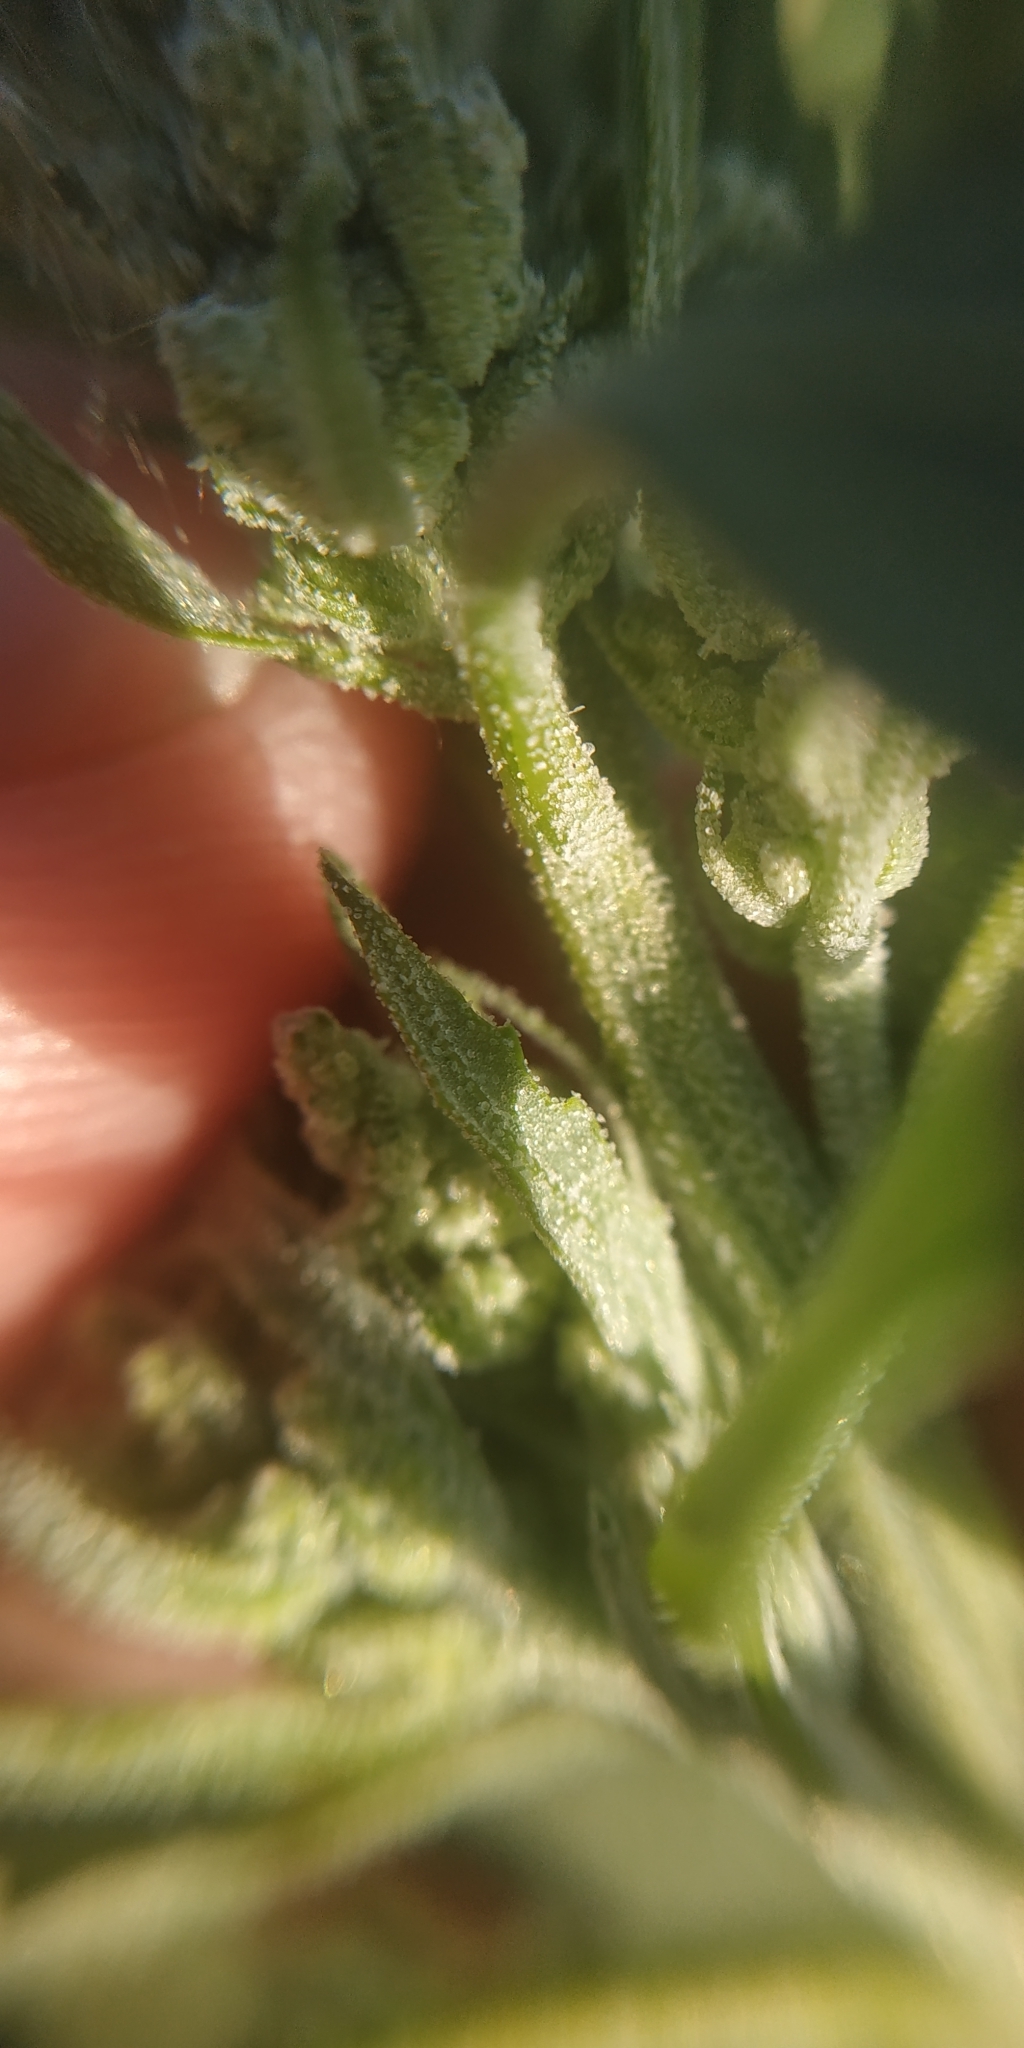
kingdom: Plantae
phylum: Tracheophyta
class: Magnoliopsida
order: Caryophyllales
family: Amaranthaceae
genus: Chenopodium
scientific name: Chenopodium album
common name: Fat-hen
